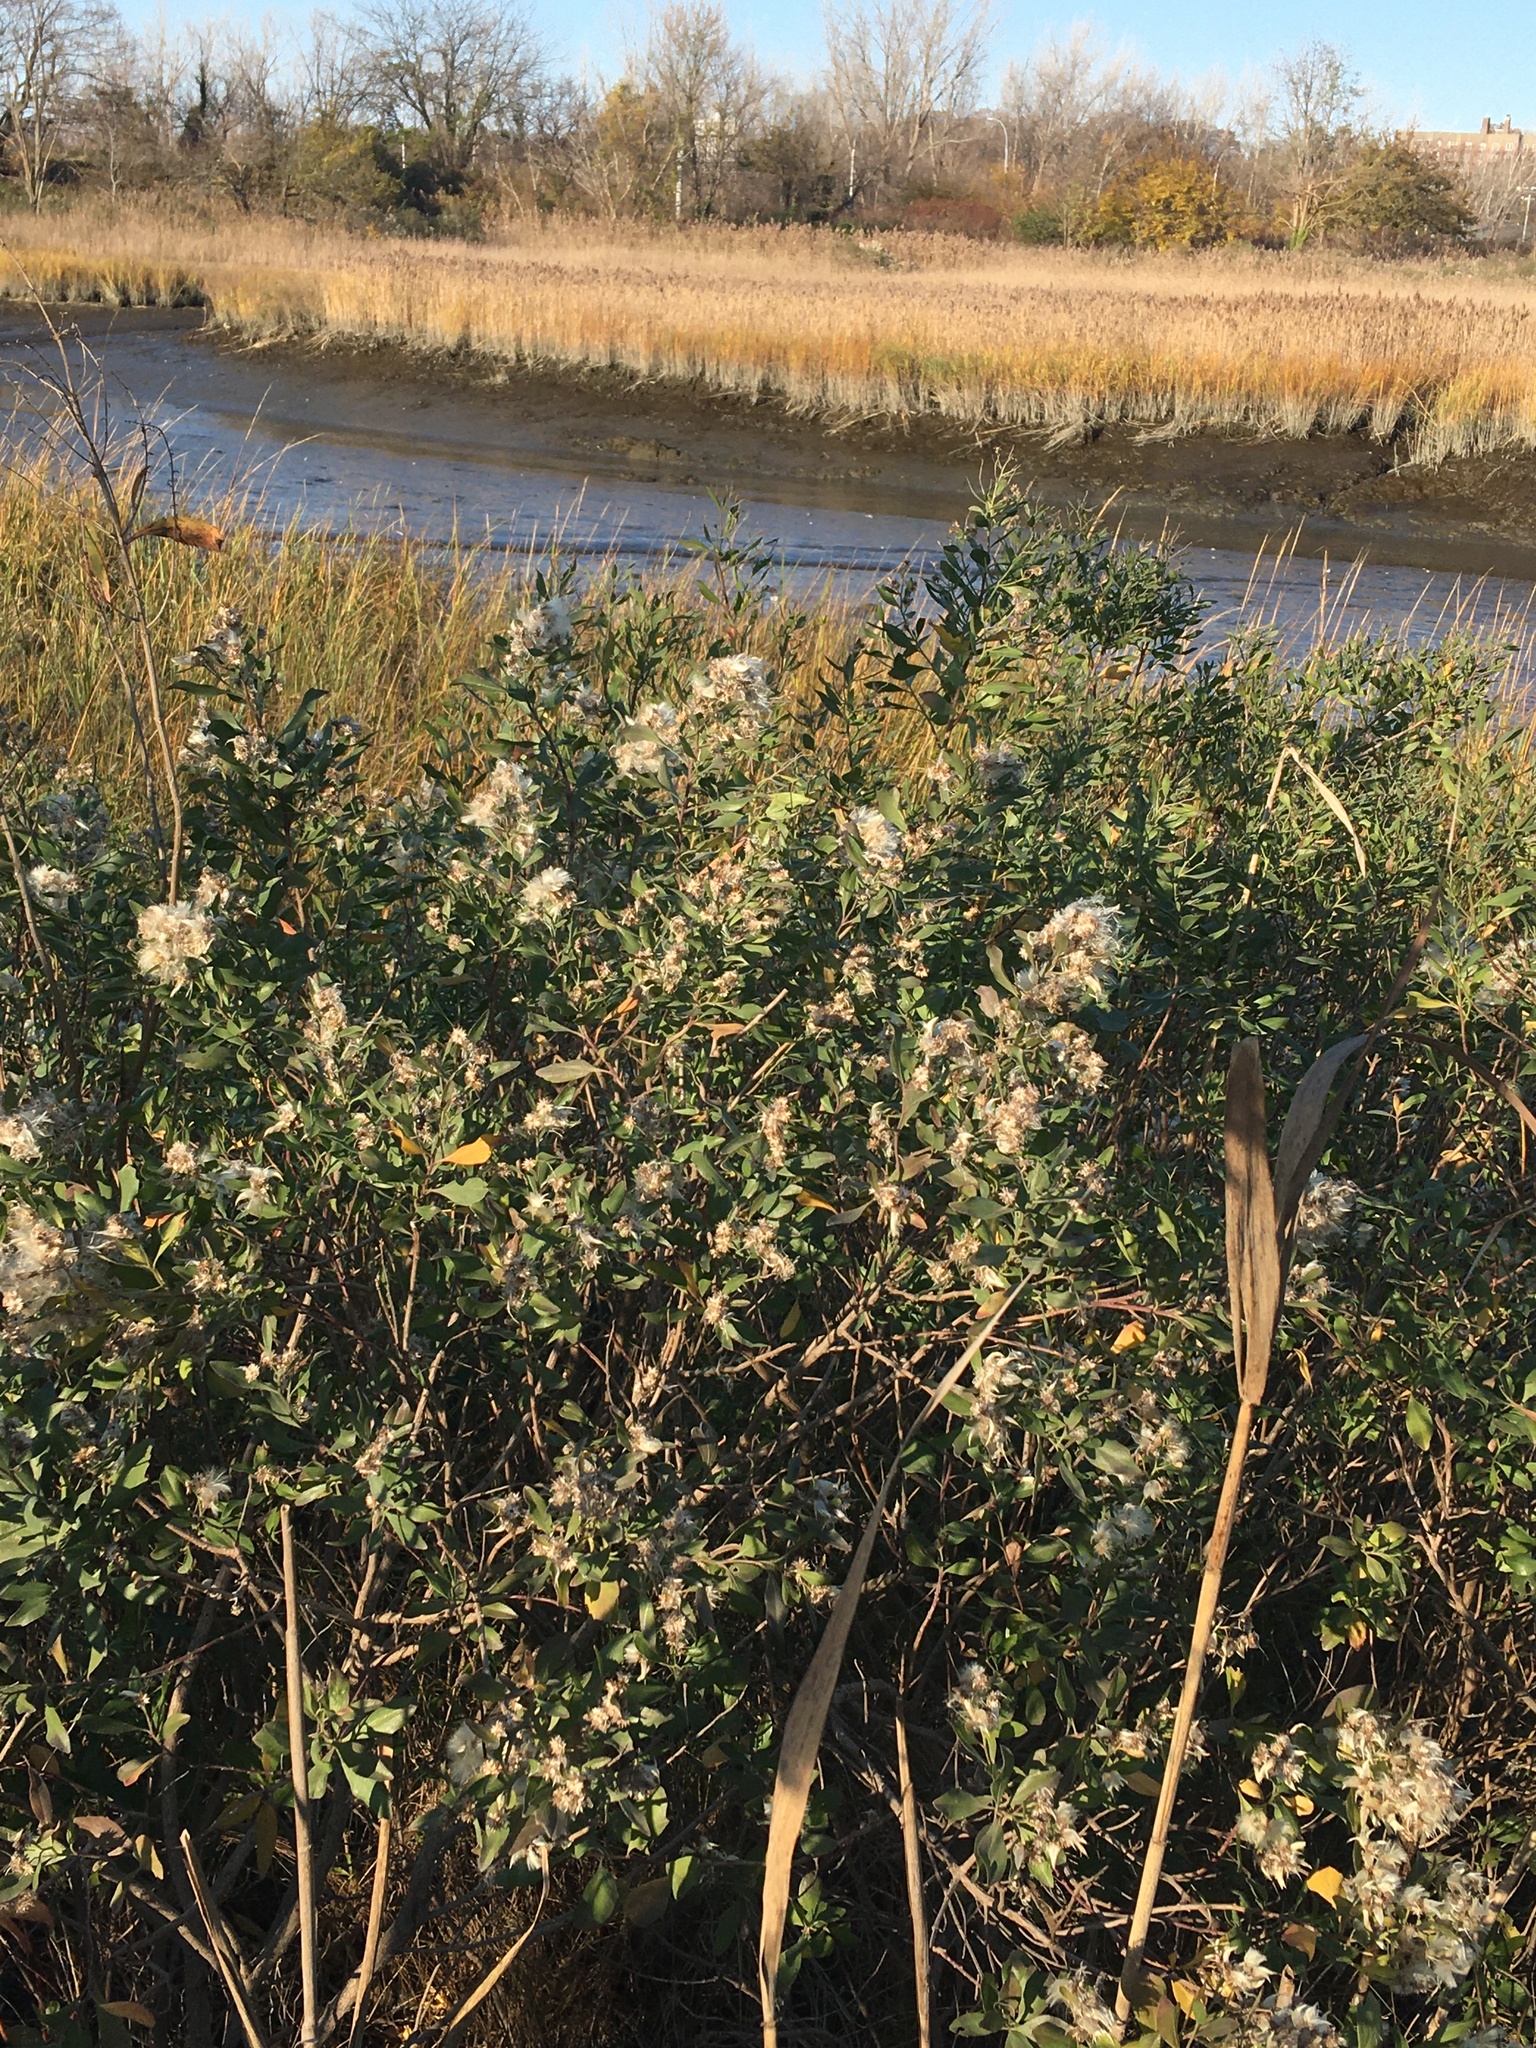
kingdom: Plantae
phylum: Tracheophyta
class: Magnoliopsida
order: Asterales
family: Asteraceae
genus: Baccharis
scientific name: Baccharis halimifolia
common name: Eastern baccharis
